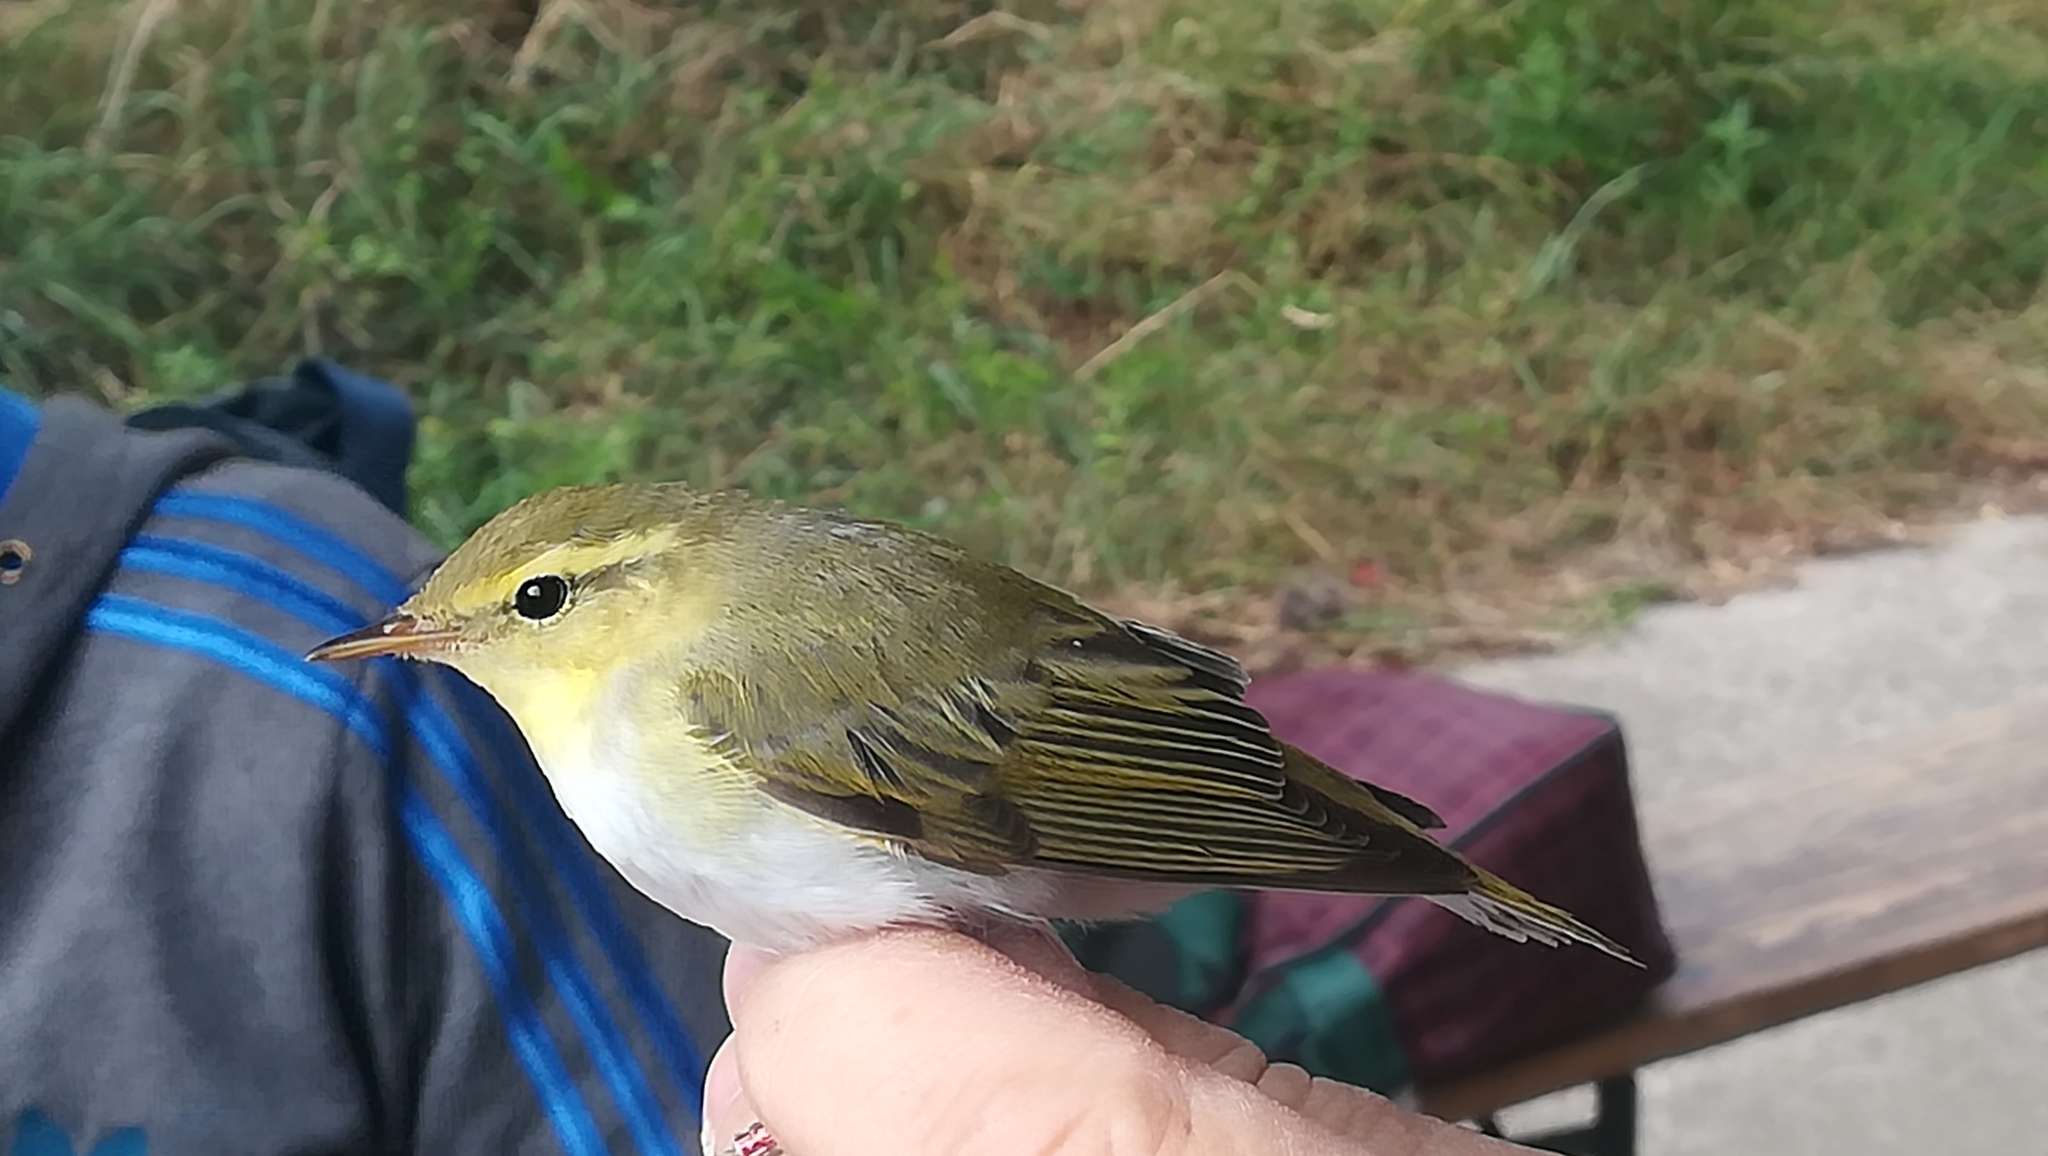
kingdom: Animalia
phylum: Chordata
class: Aves
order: Passeriformes
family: Phylloscopidae
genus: Phylloscopus
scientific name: Phylloscopus sibillatrix
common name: Wood warbler
